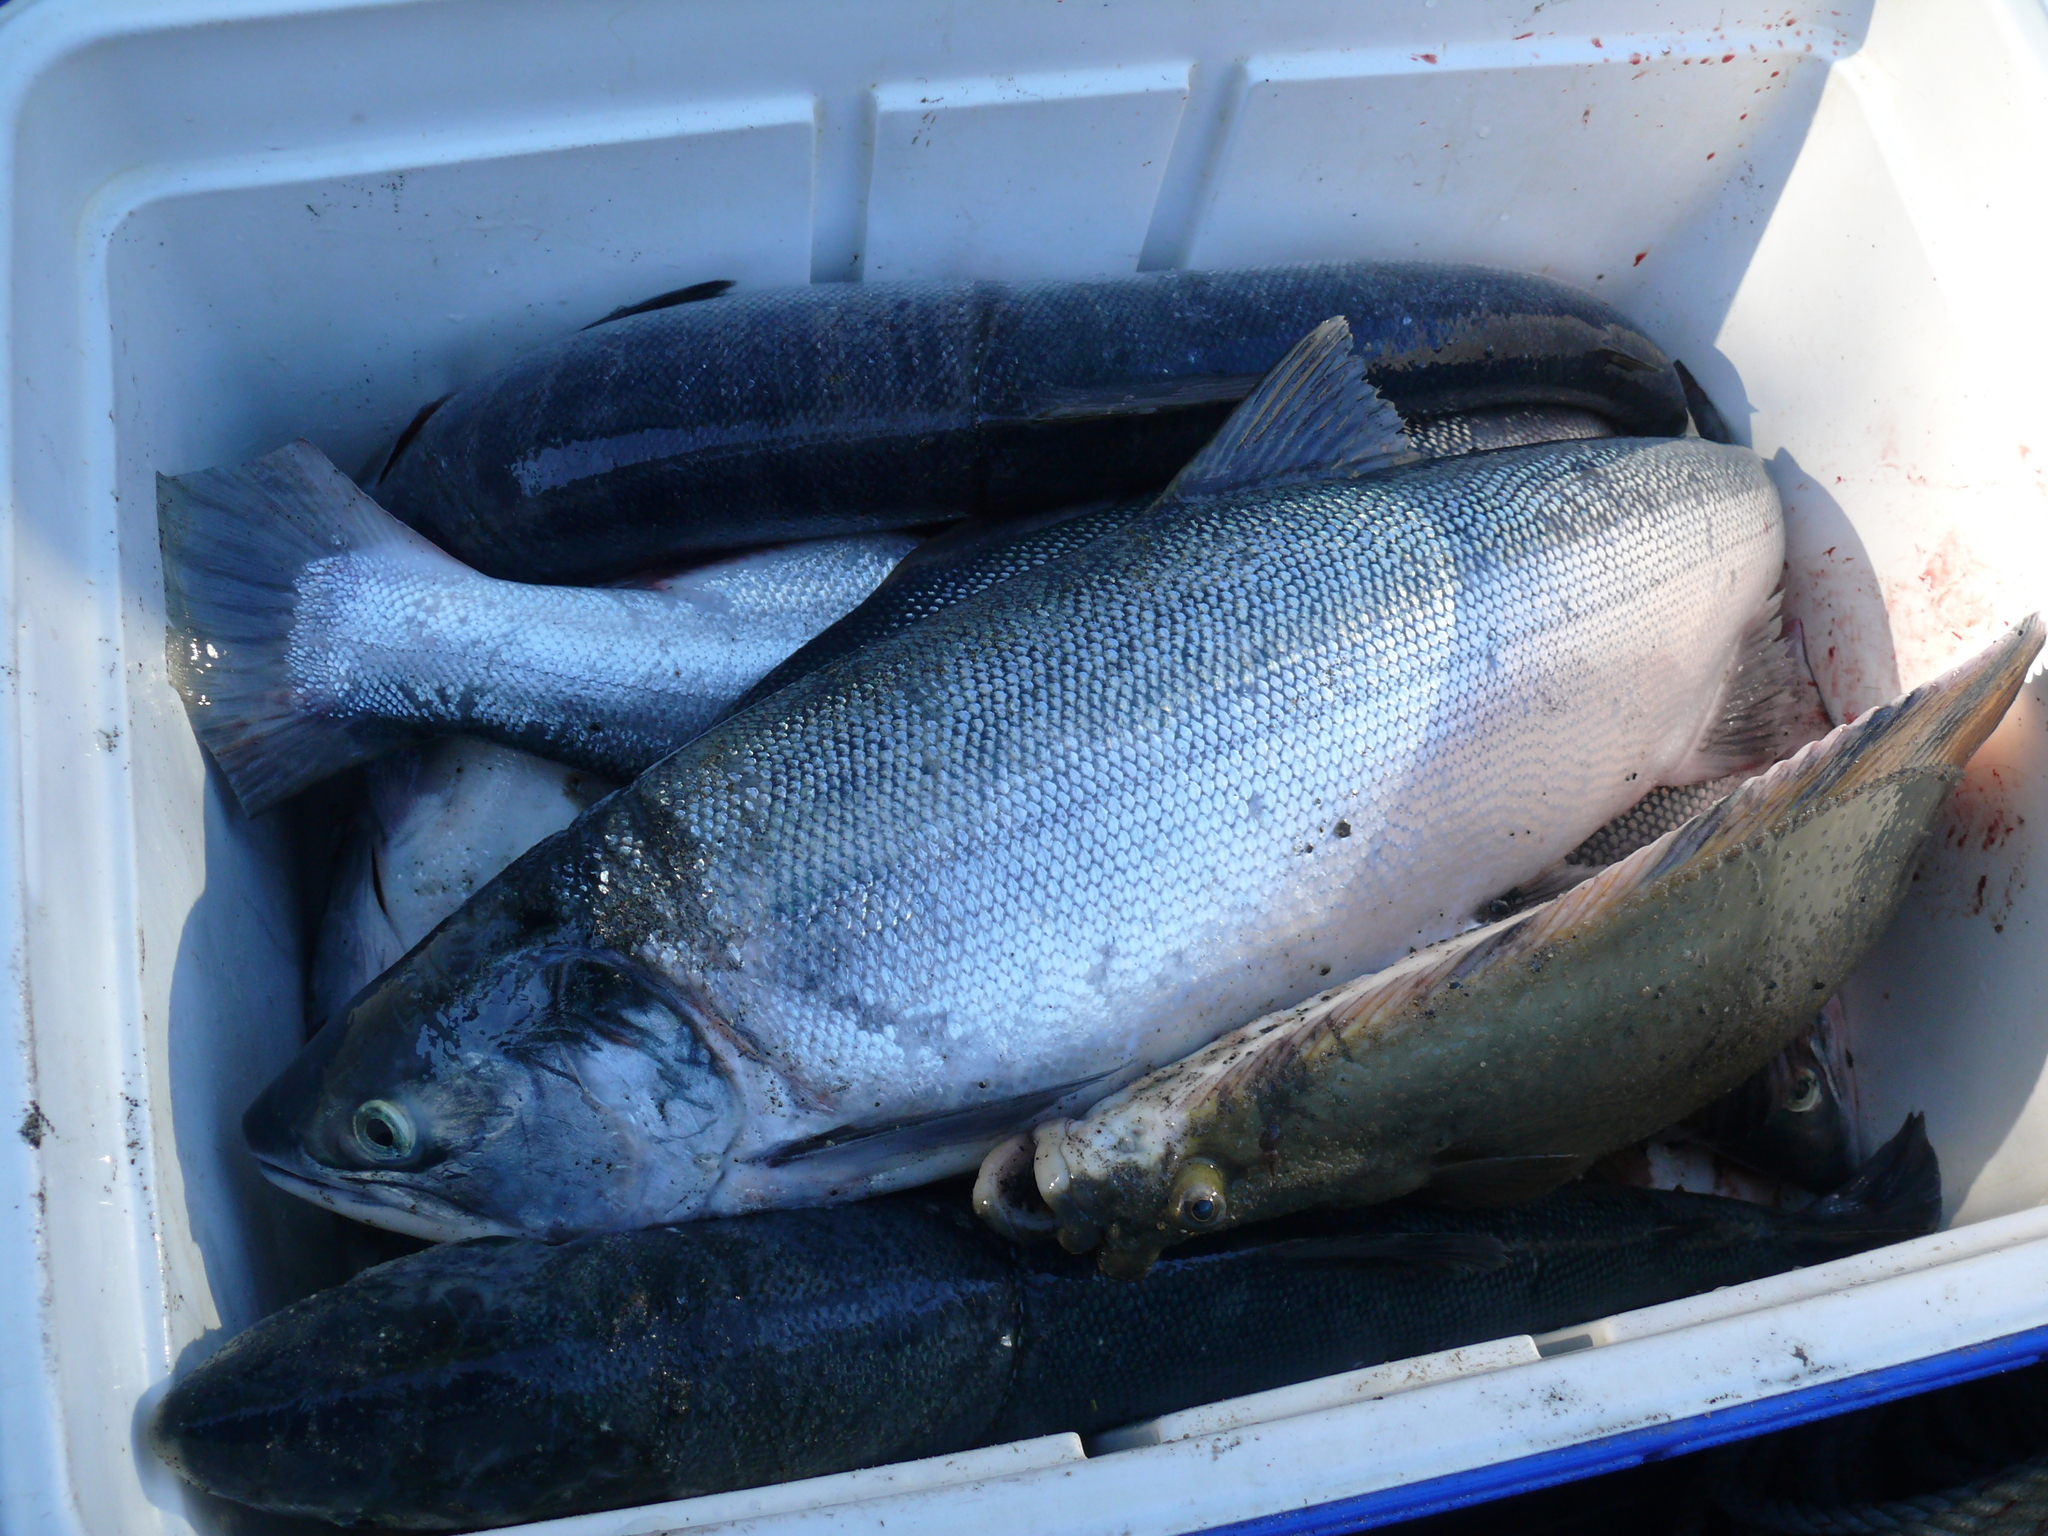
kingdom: Animalia
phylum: Chordata
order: Salmoniformes
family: Salmonidae
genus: Oncorhynchus
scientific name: Oncorhynchus nerka
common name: Sockeye salmon
